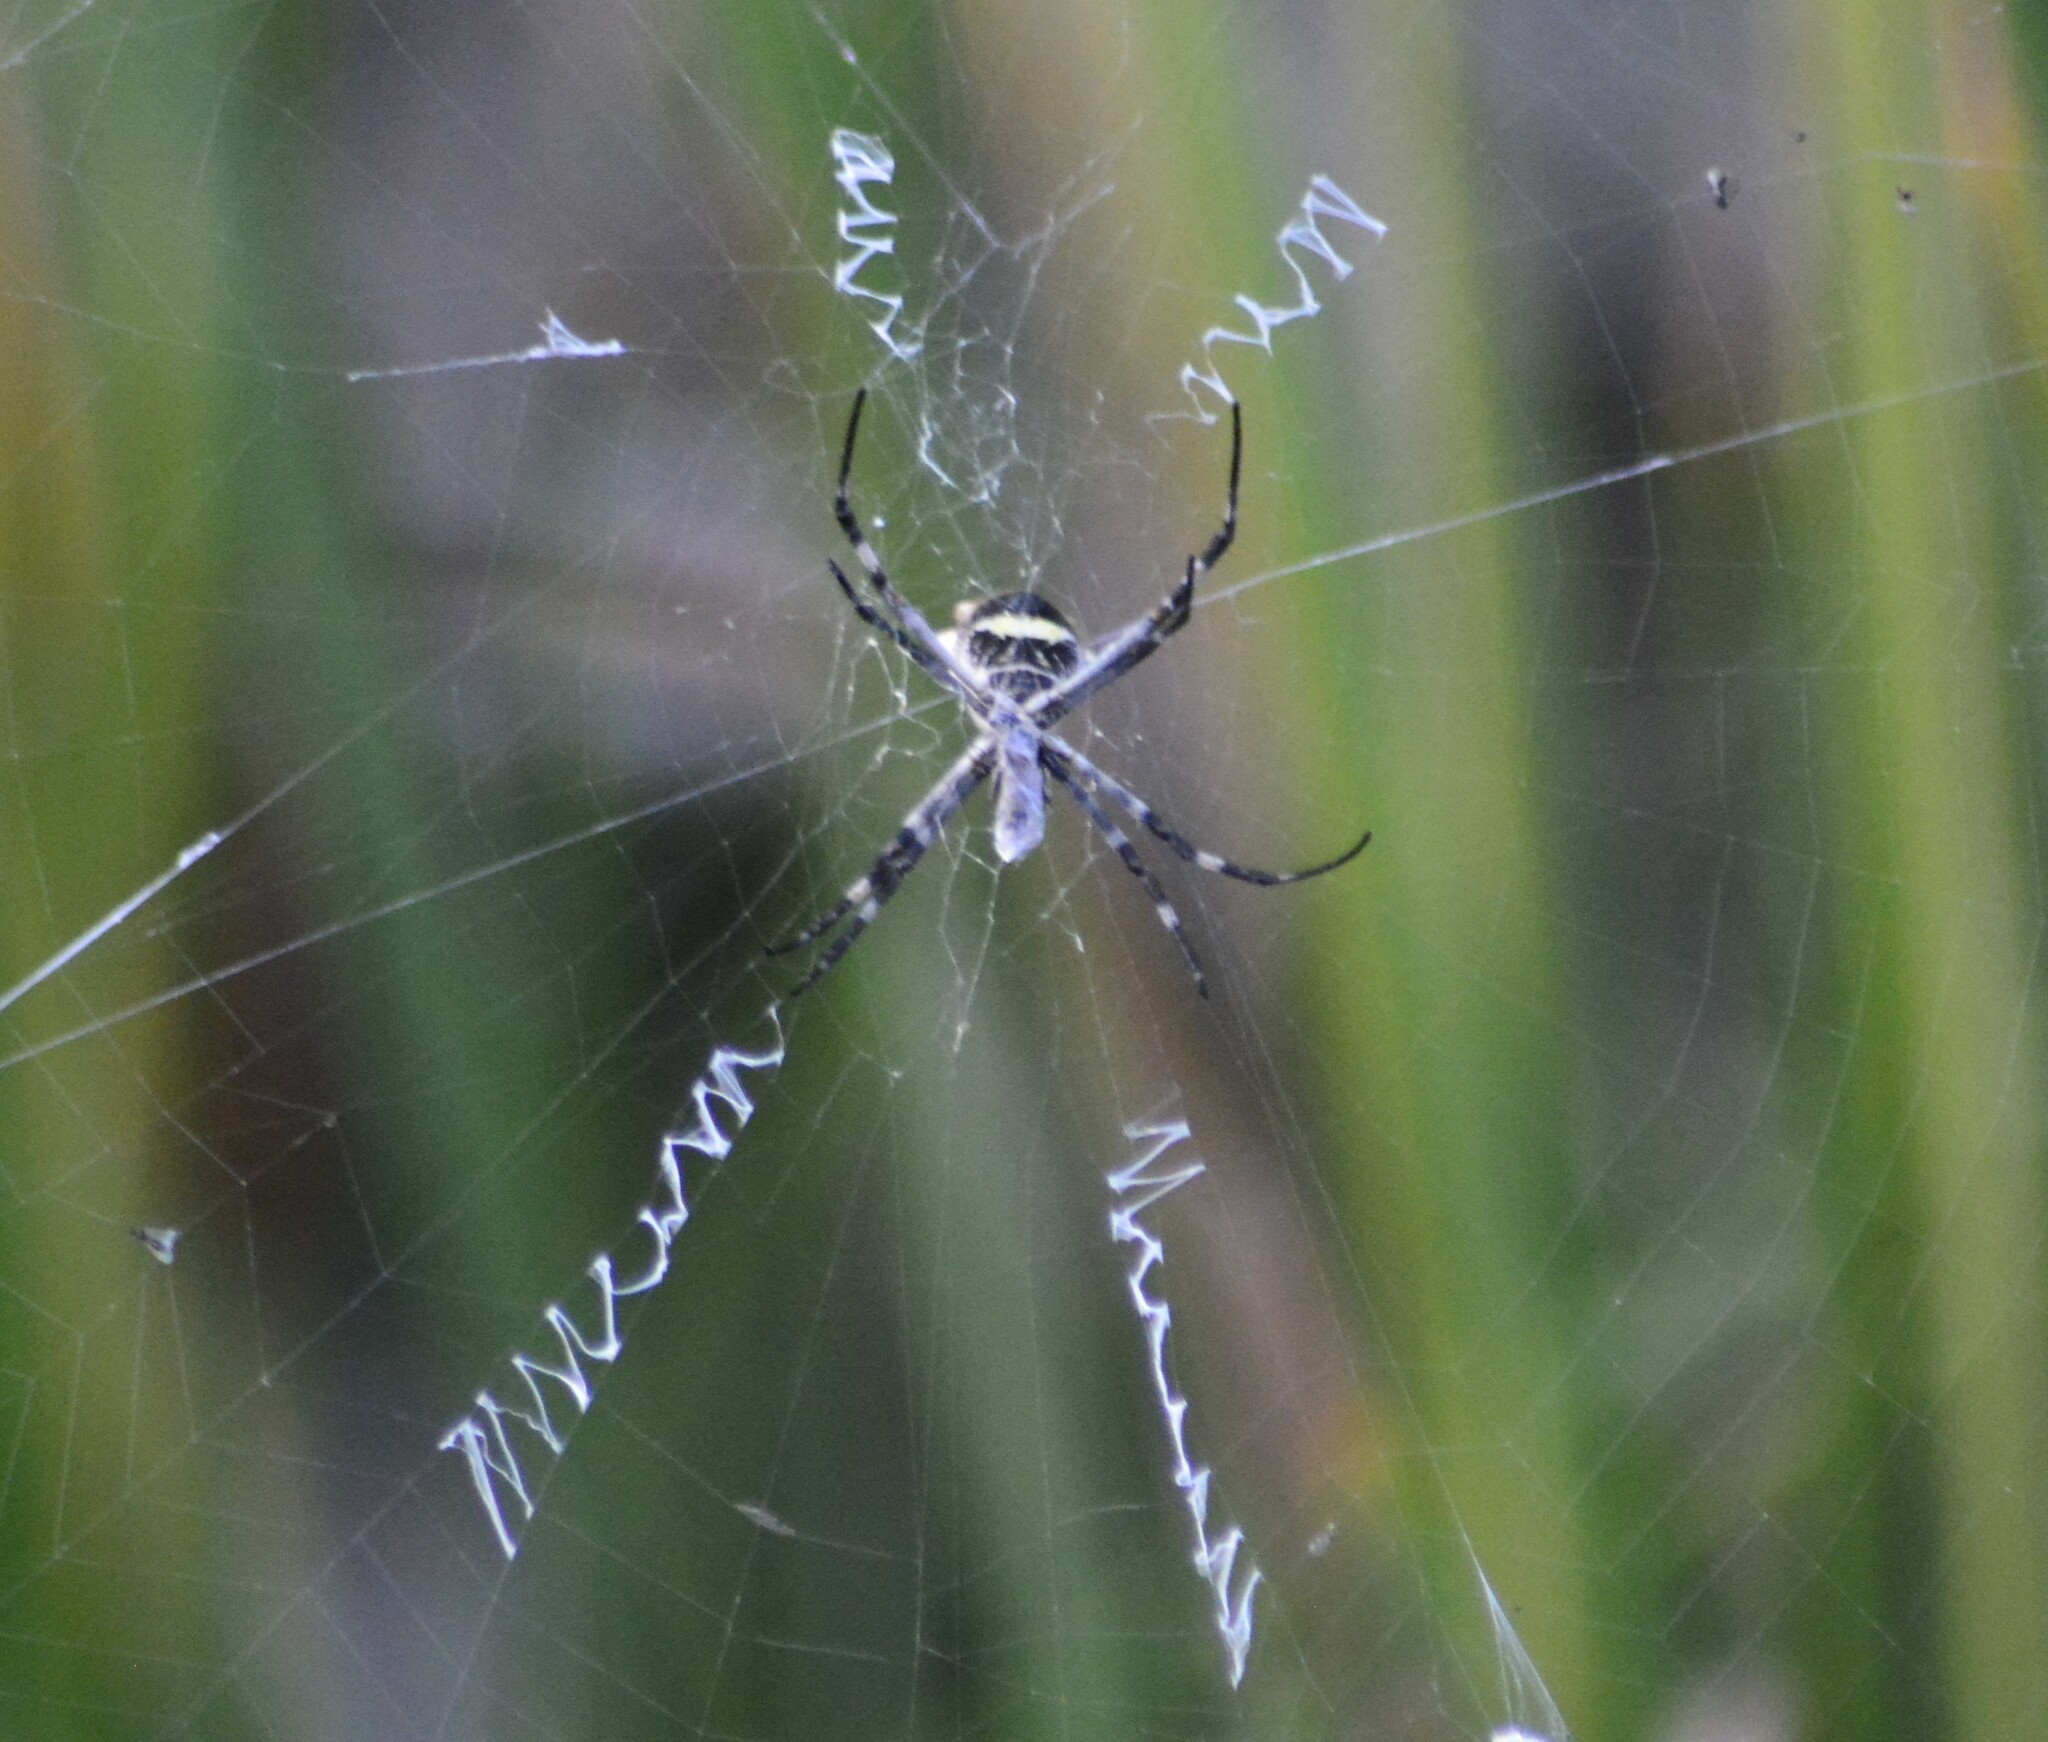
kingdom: Animalia
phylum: Arthropoda
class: Arachnida
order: Araneae
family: Araneidae
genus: Argiope
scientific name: Argiope argentata
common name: Orb weavers
